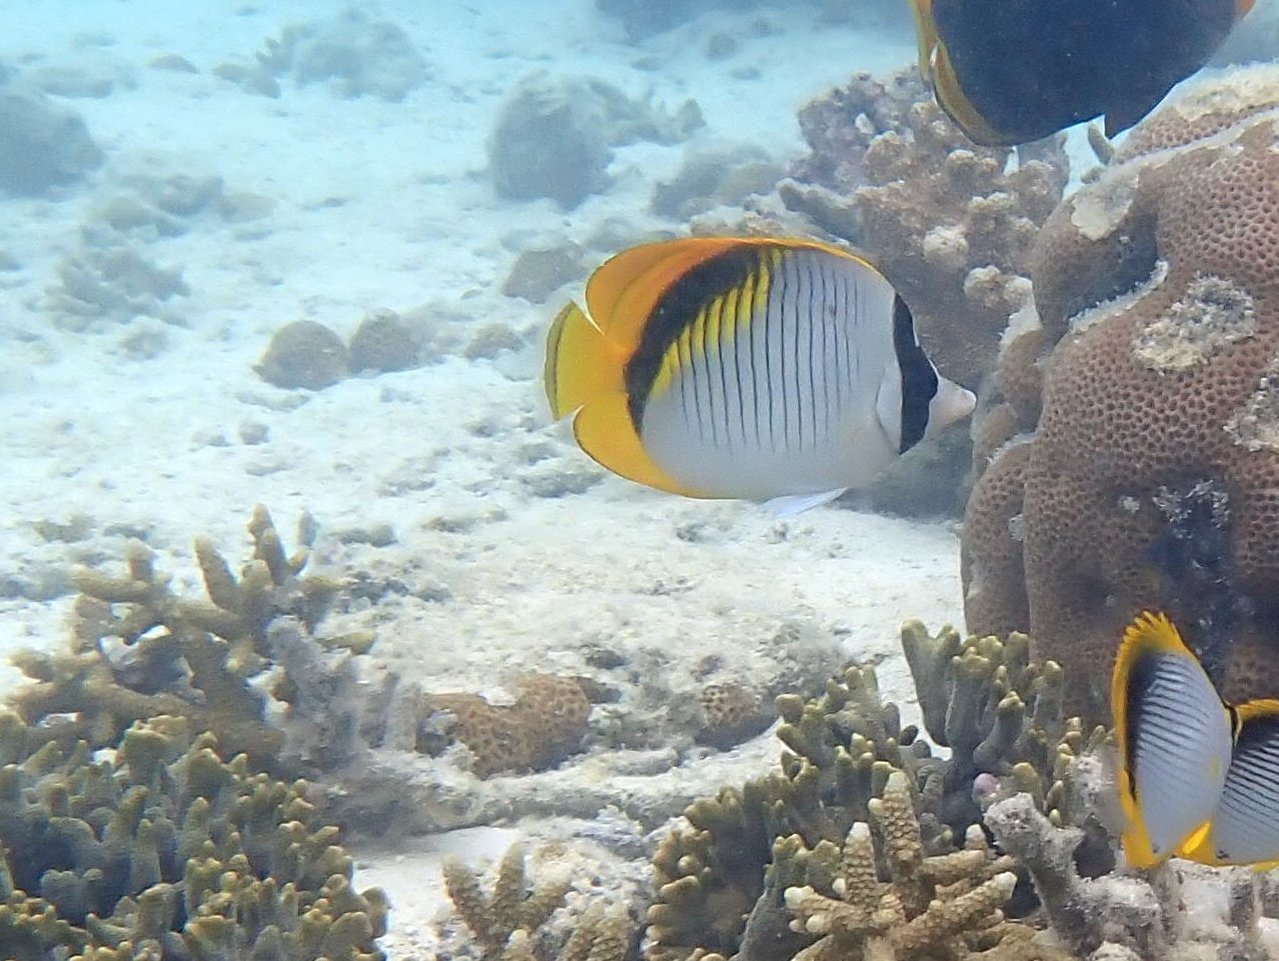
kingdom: Animalia
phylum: Chordata
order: Perciformes
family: Chaetodontidae
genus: Chaetodon
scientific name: Chaetodon lineolatus
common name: Lined butterflyfish
